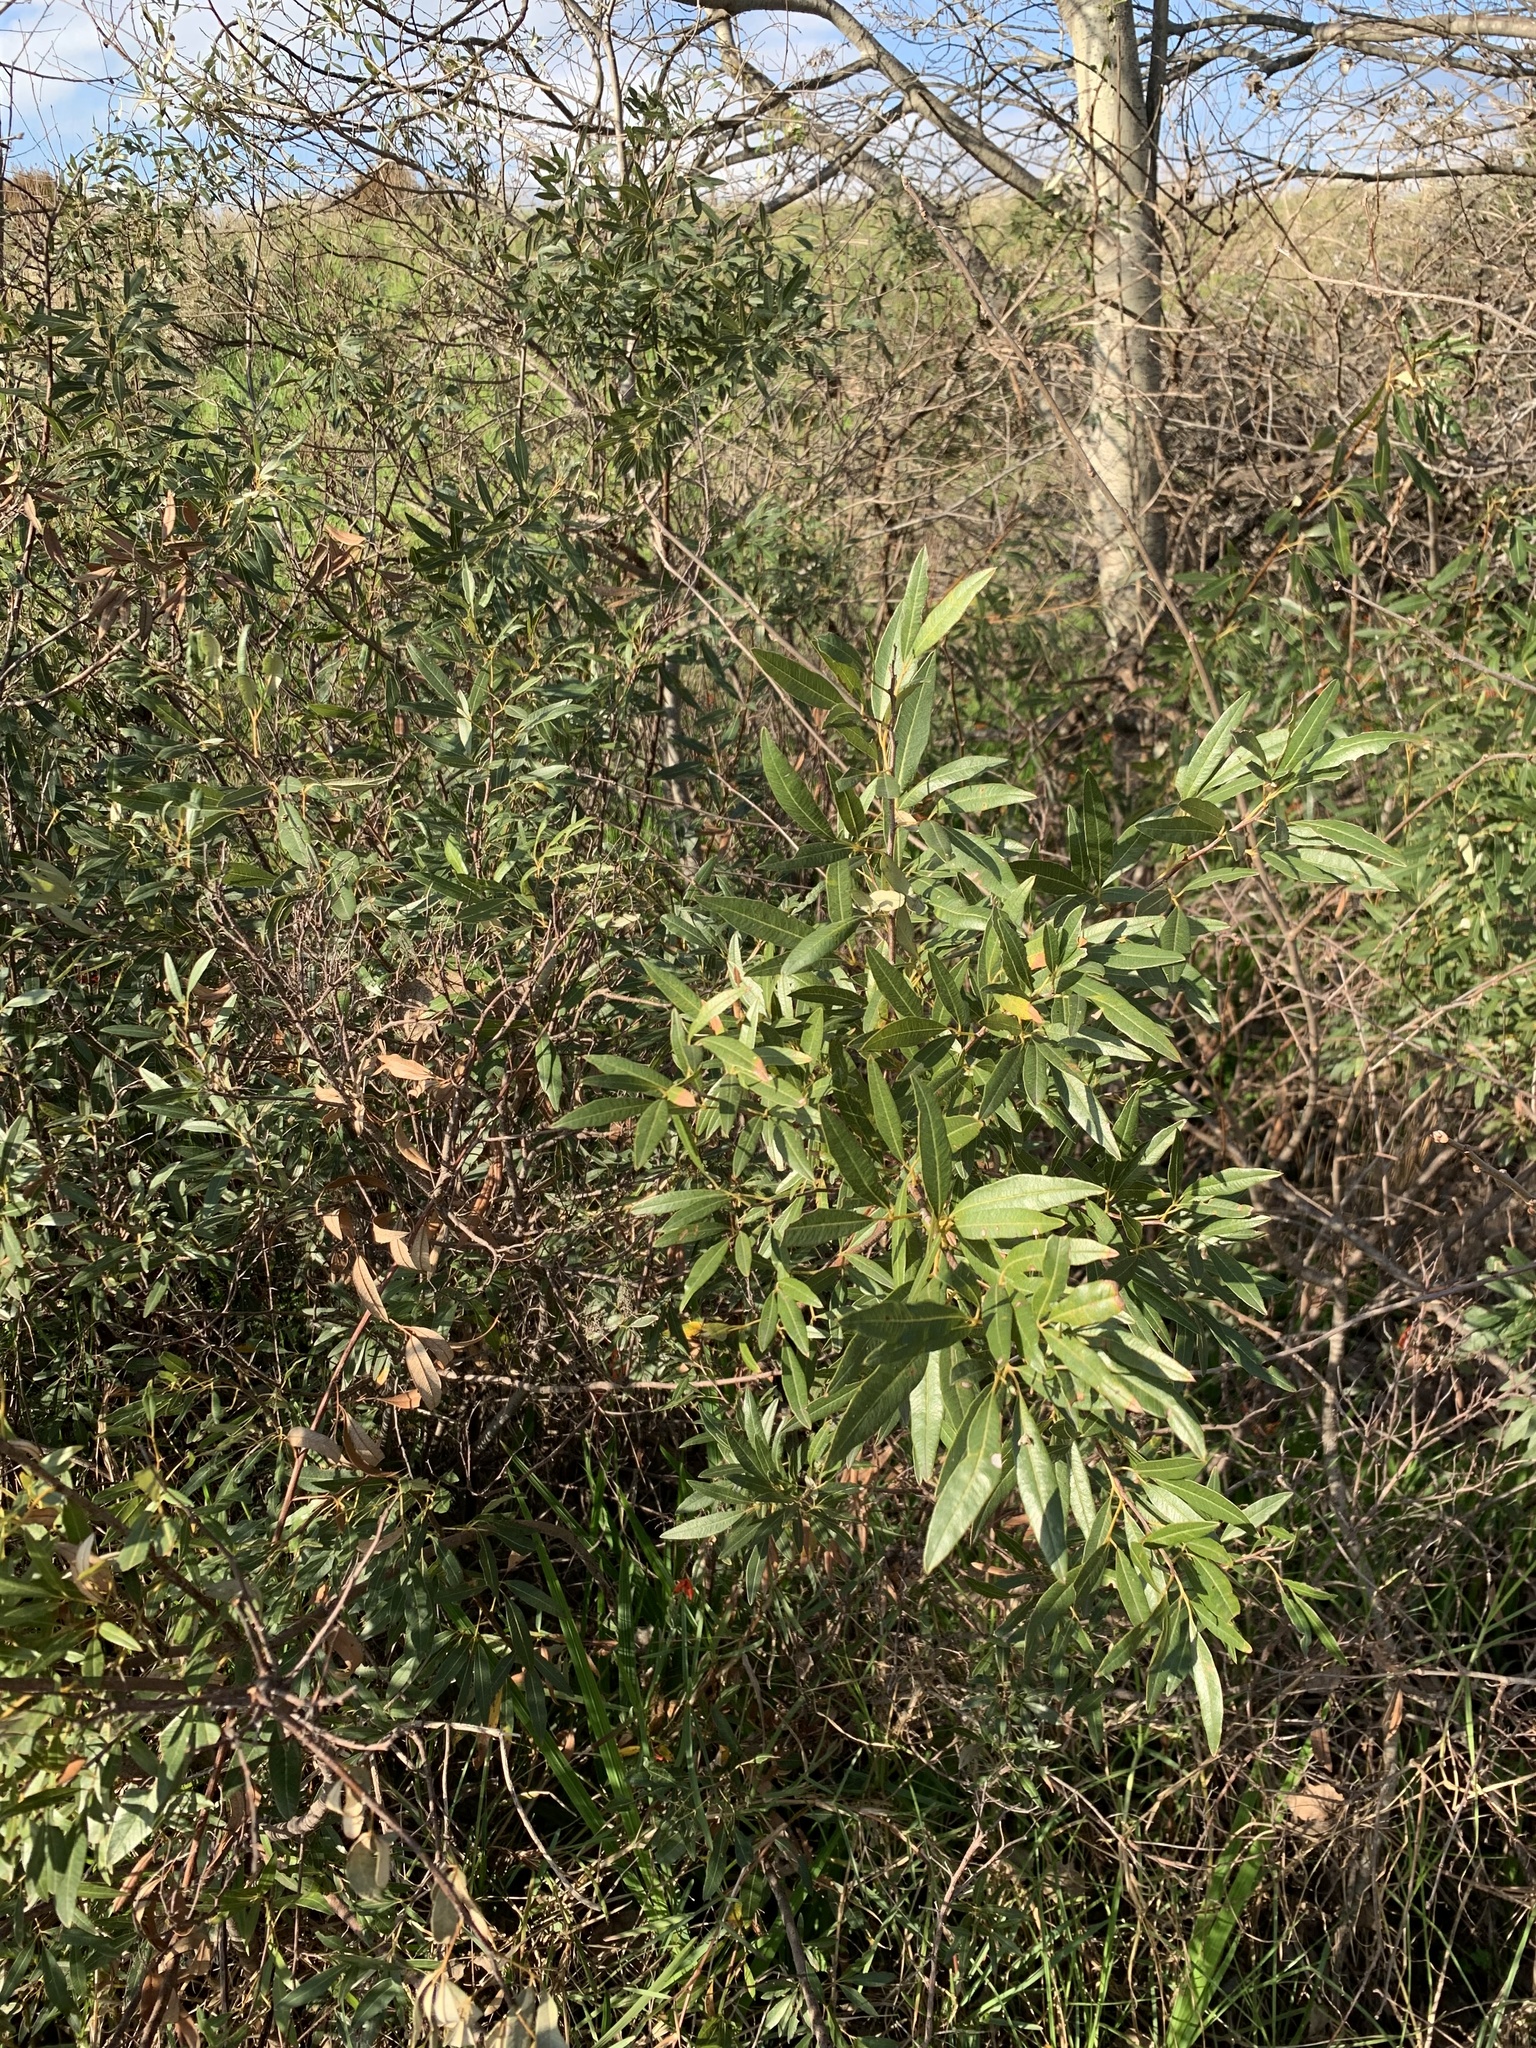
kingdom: Plantae
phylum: Tracheophyta
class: Magnoliopsida
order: Sapindales
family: Anacardiaceae
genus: Searsia
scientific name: Searsia angustifolia
